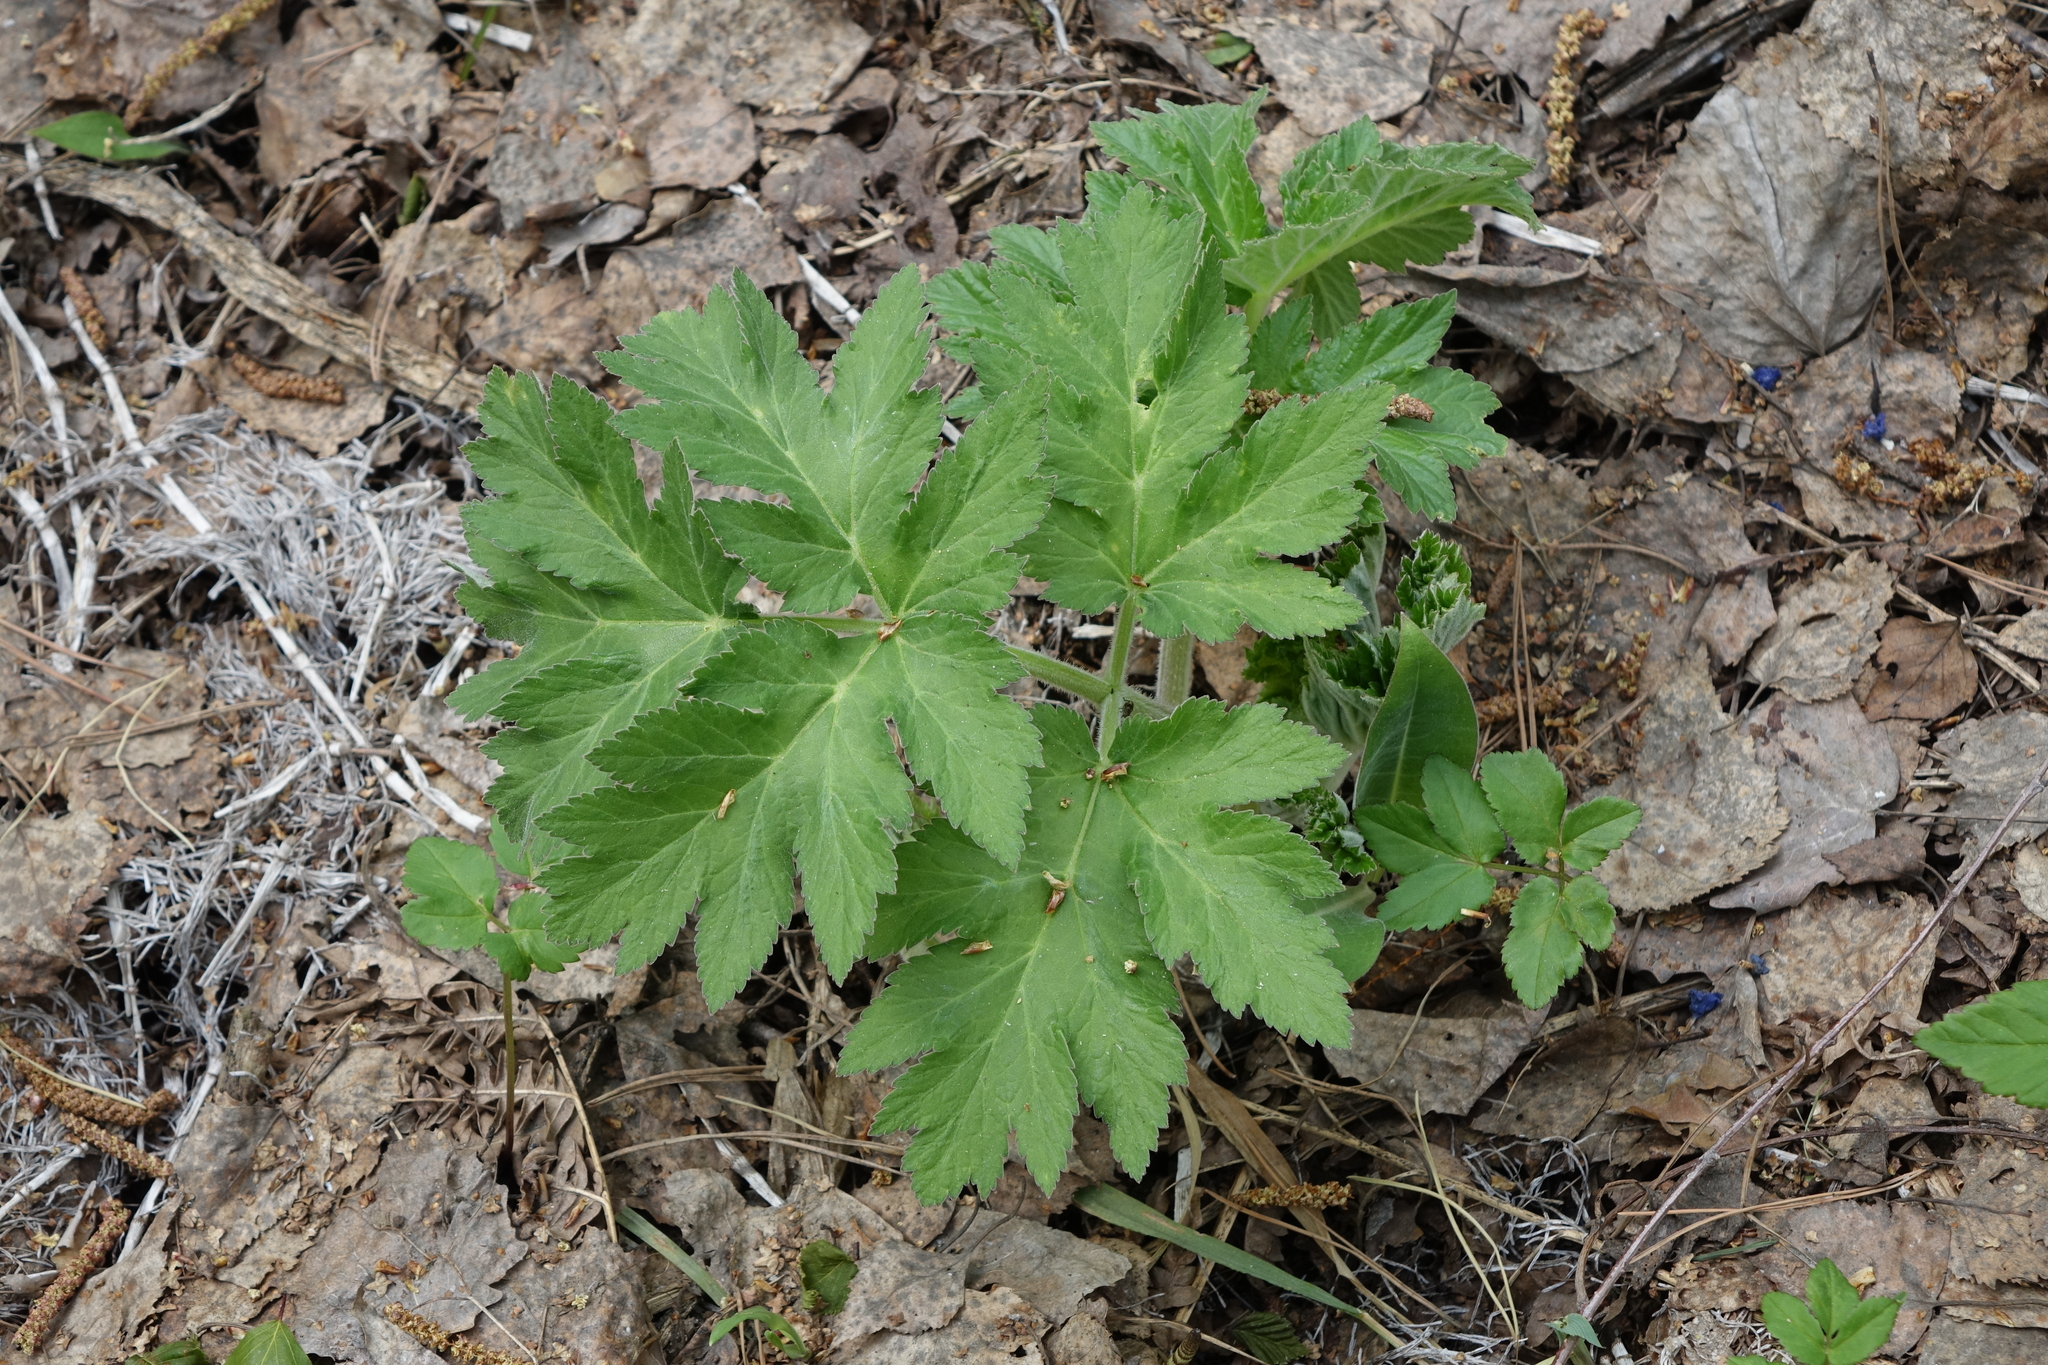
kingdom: Plantae
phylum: Tracheophyta
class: Magnoliopsida
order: Apiales
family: Apiaceae
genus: Heracleum
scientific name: Heracleum dissectum
